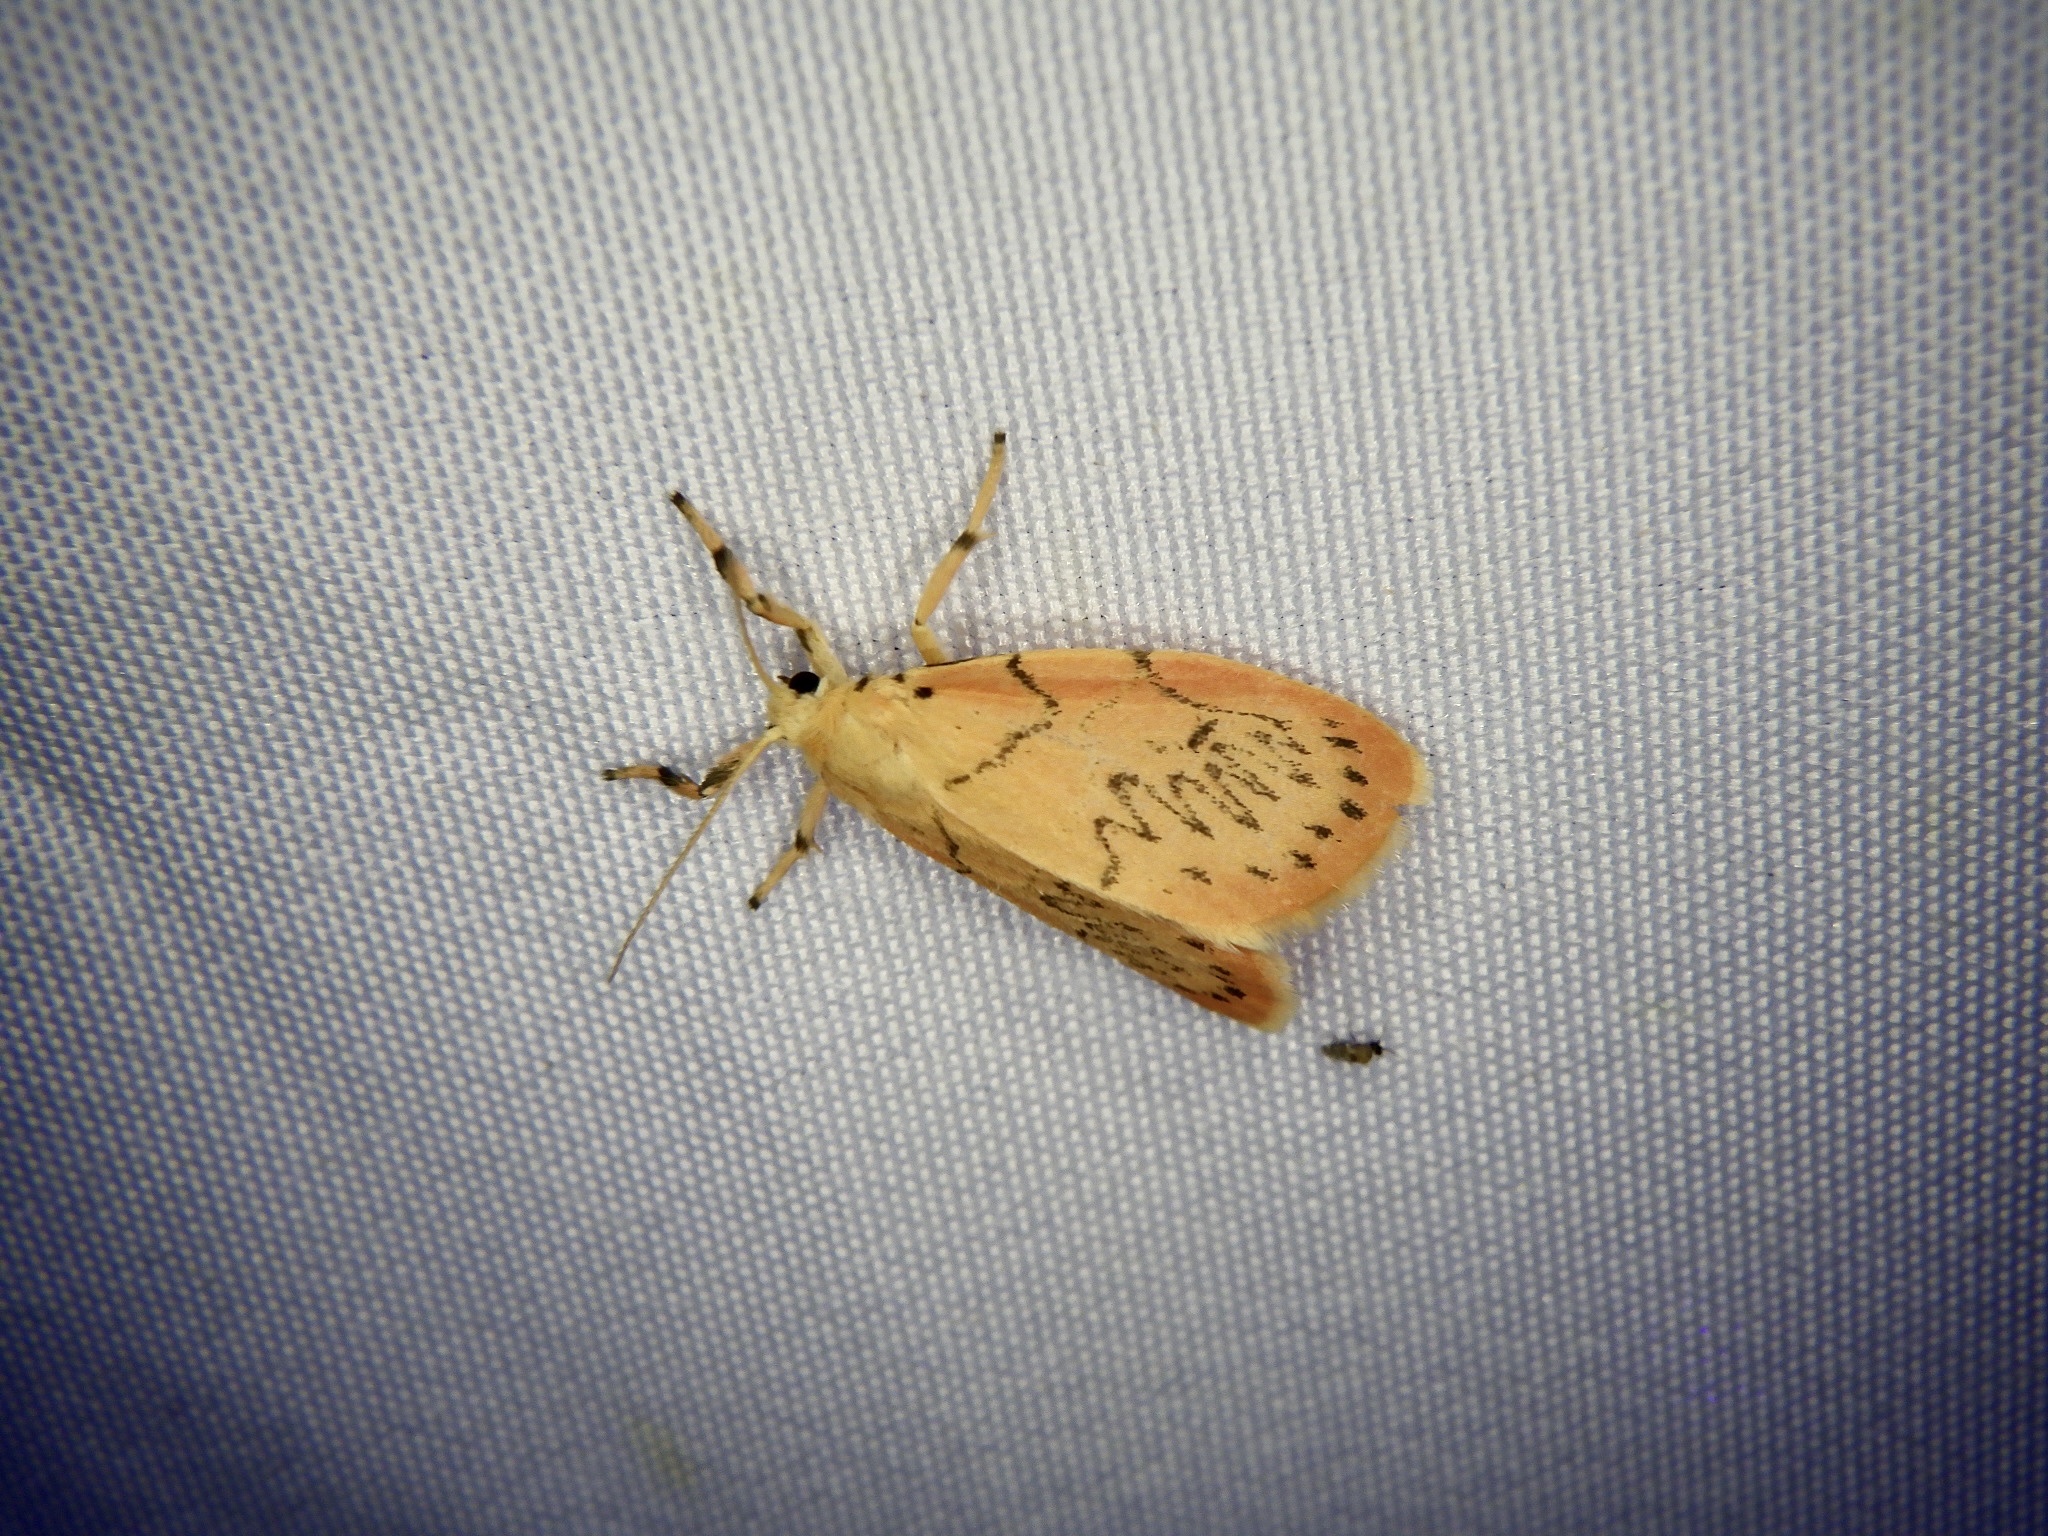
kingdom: Animalia
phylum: Arthropoda
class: Insecta
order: Lepidoptera
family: Erebidae
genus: Miltochrista
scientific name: Miltochrista miniata
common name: Rosy footman
